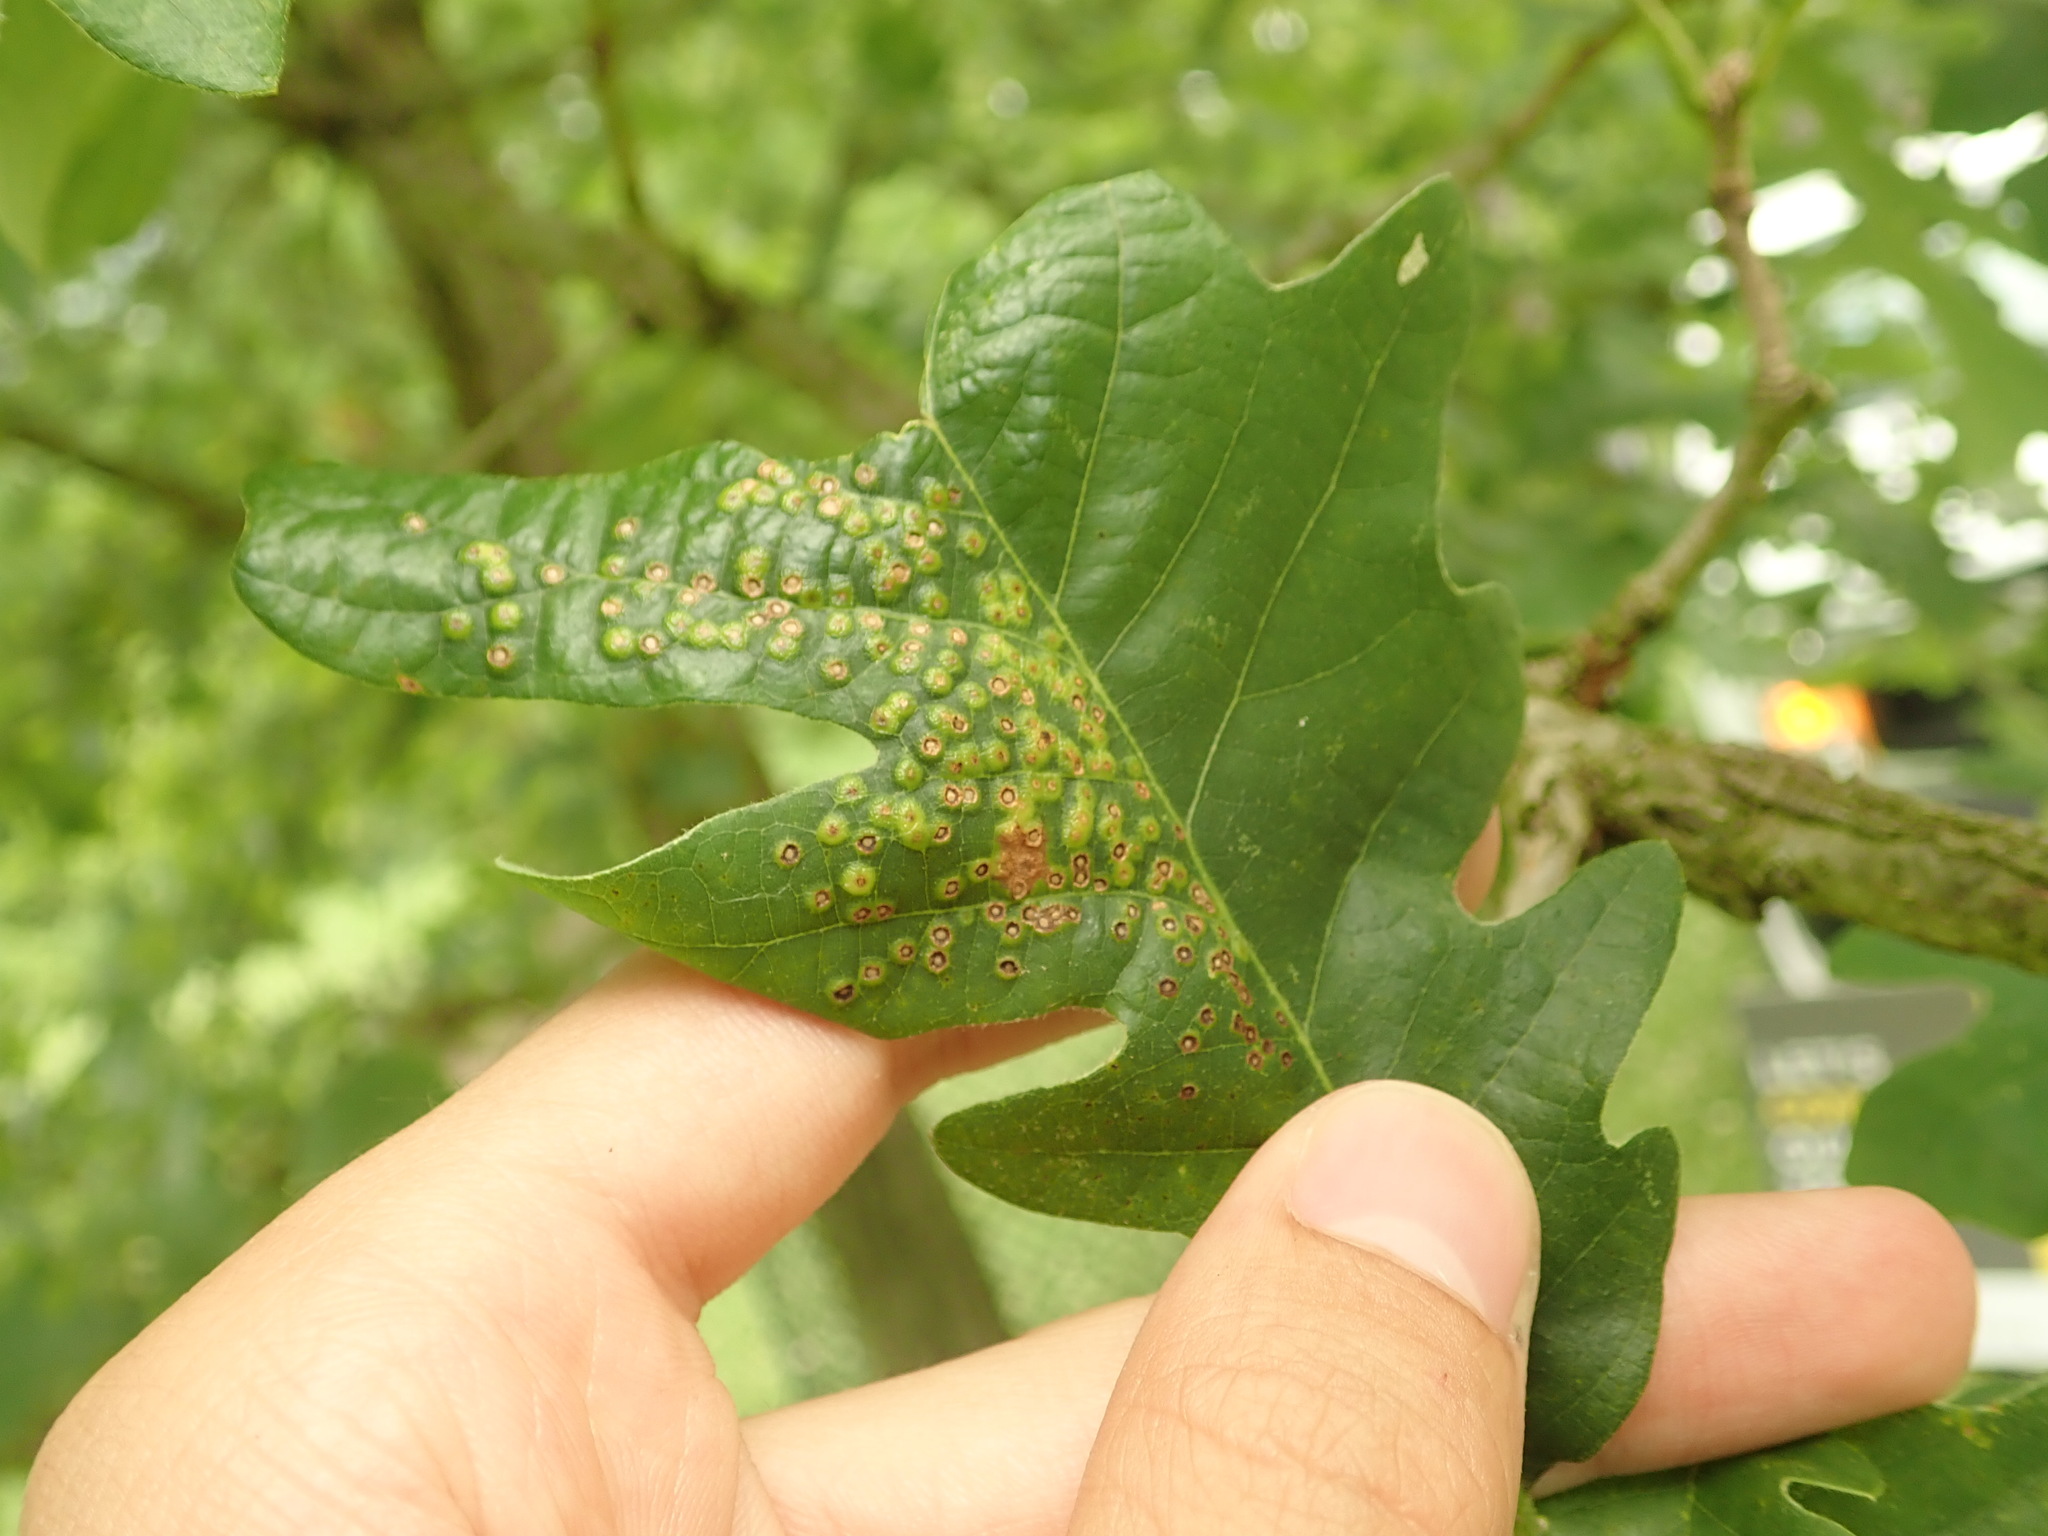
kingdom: Animalia
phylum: Arthropoda
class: Insecta
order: Hymenoptera
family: Cynipidae
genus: Neuroterus
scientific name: Neuroterus saltarius
